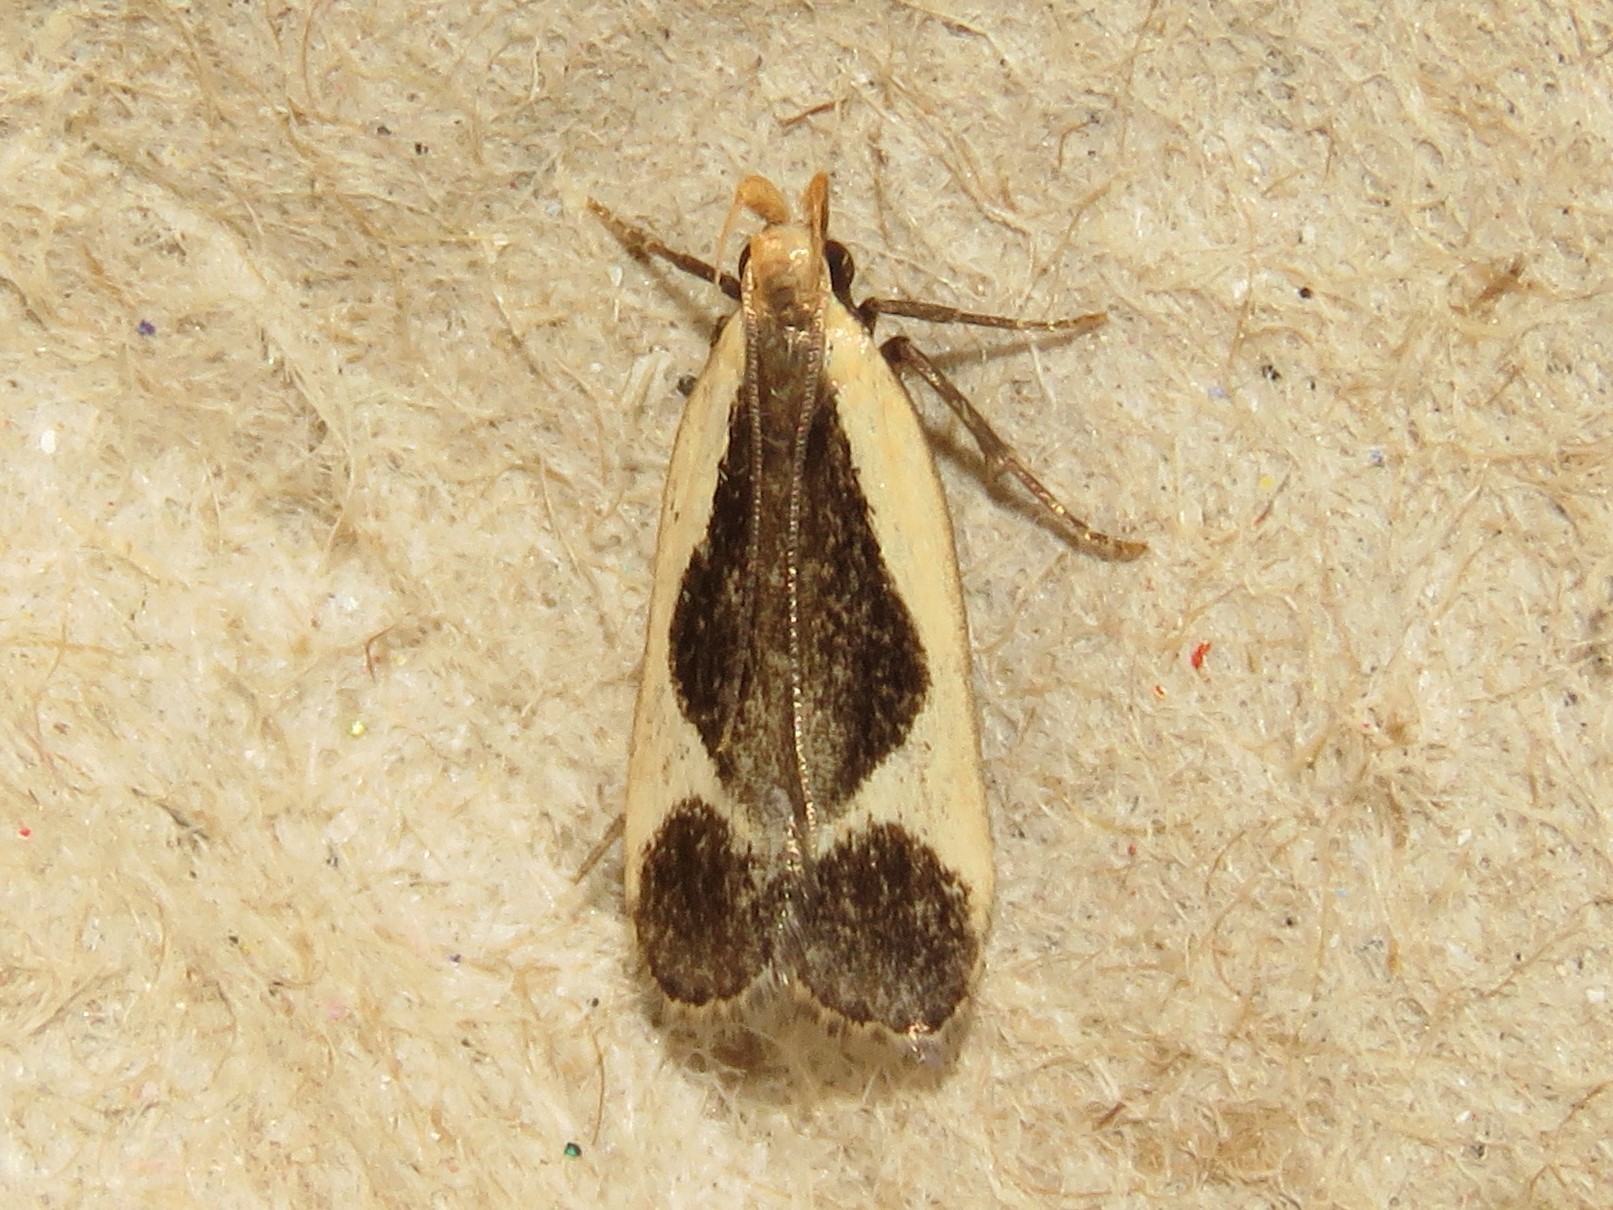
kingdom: Animalia
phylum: Arthropoda
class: Insecta
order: Lepidoptera
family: Gelechiidae
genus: Dichomeris
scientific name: Dichomeris flavocostella
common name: Cream-edged dichomeris moth
